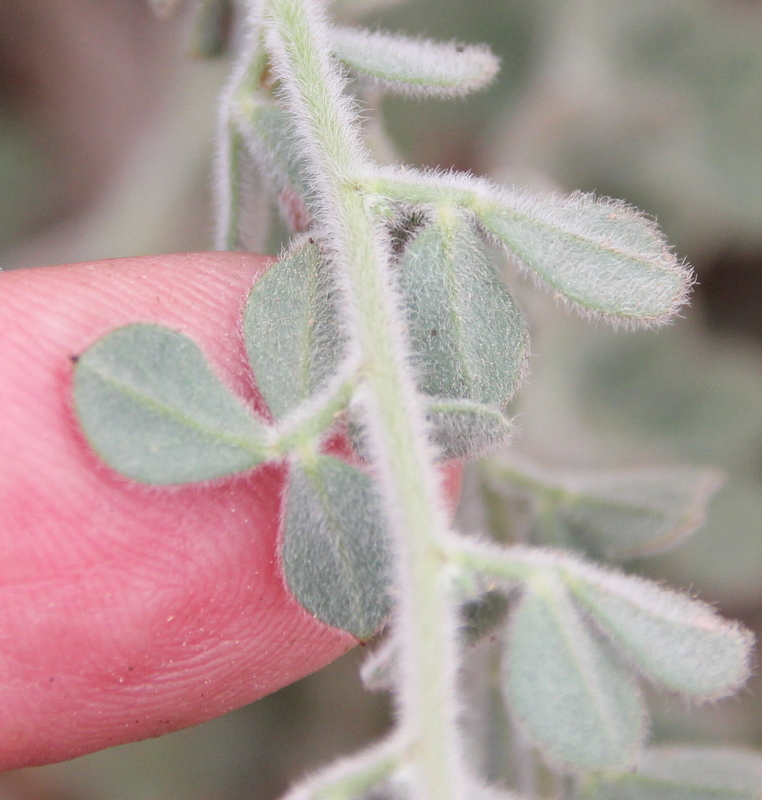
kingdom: Plantae
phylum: Tracheophyta
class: Magnoliopsida
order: Fabales
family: Fabaceae
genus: Acmispon
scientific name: Acmispon tomentosus
